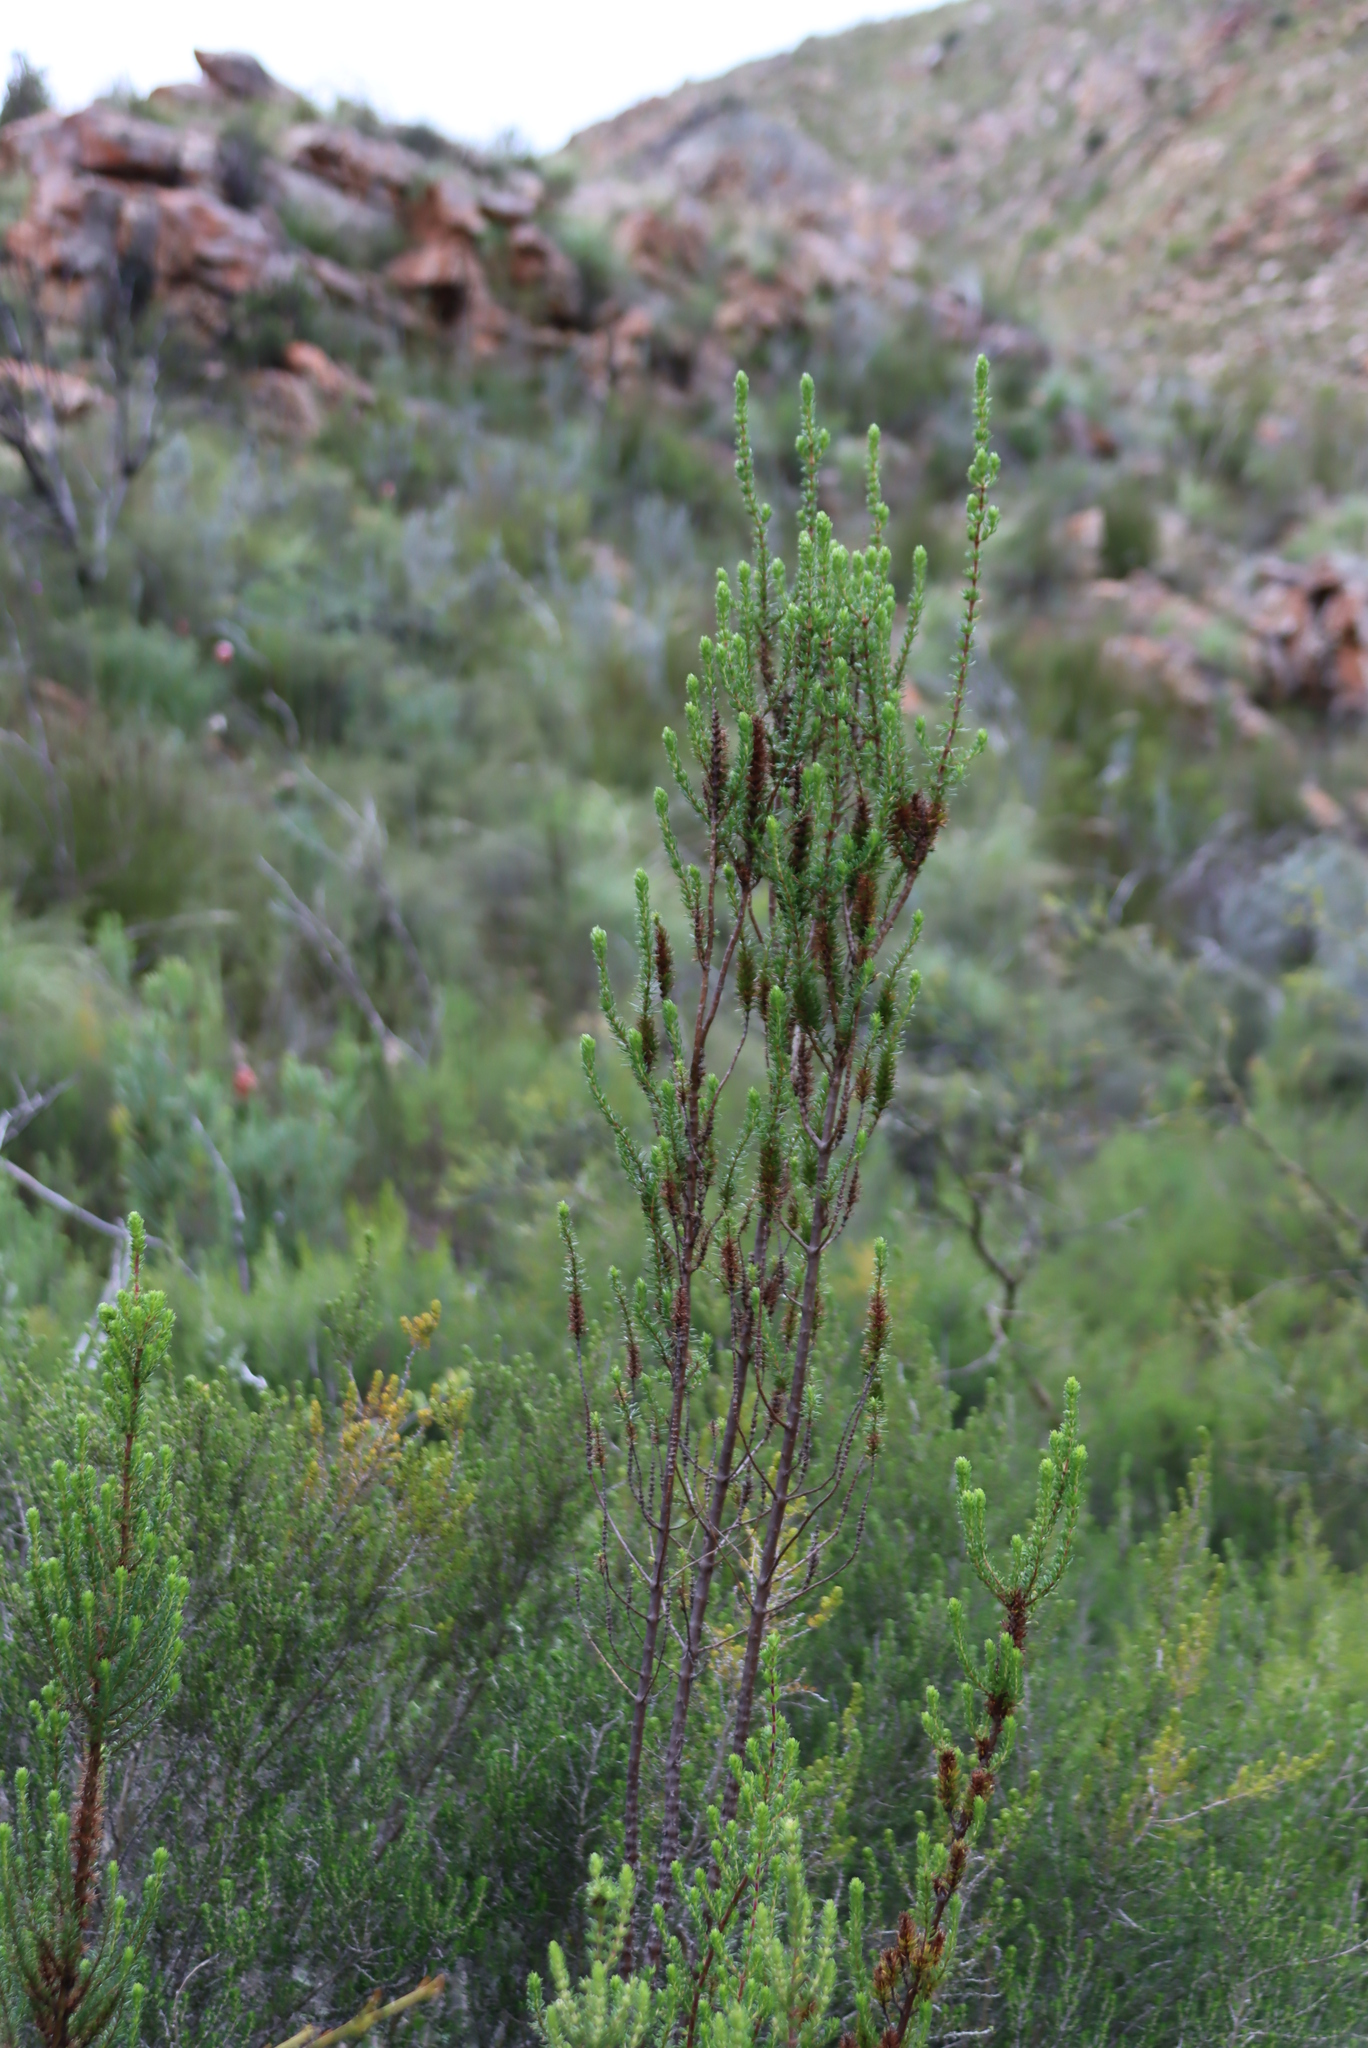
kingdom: Plantae
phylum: Tracheophyta
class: Magnoliopsida
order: Gentianales
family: Rubiaceae
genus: Anthospermum
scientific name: Anthospermum spathulatum
